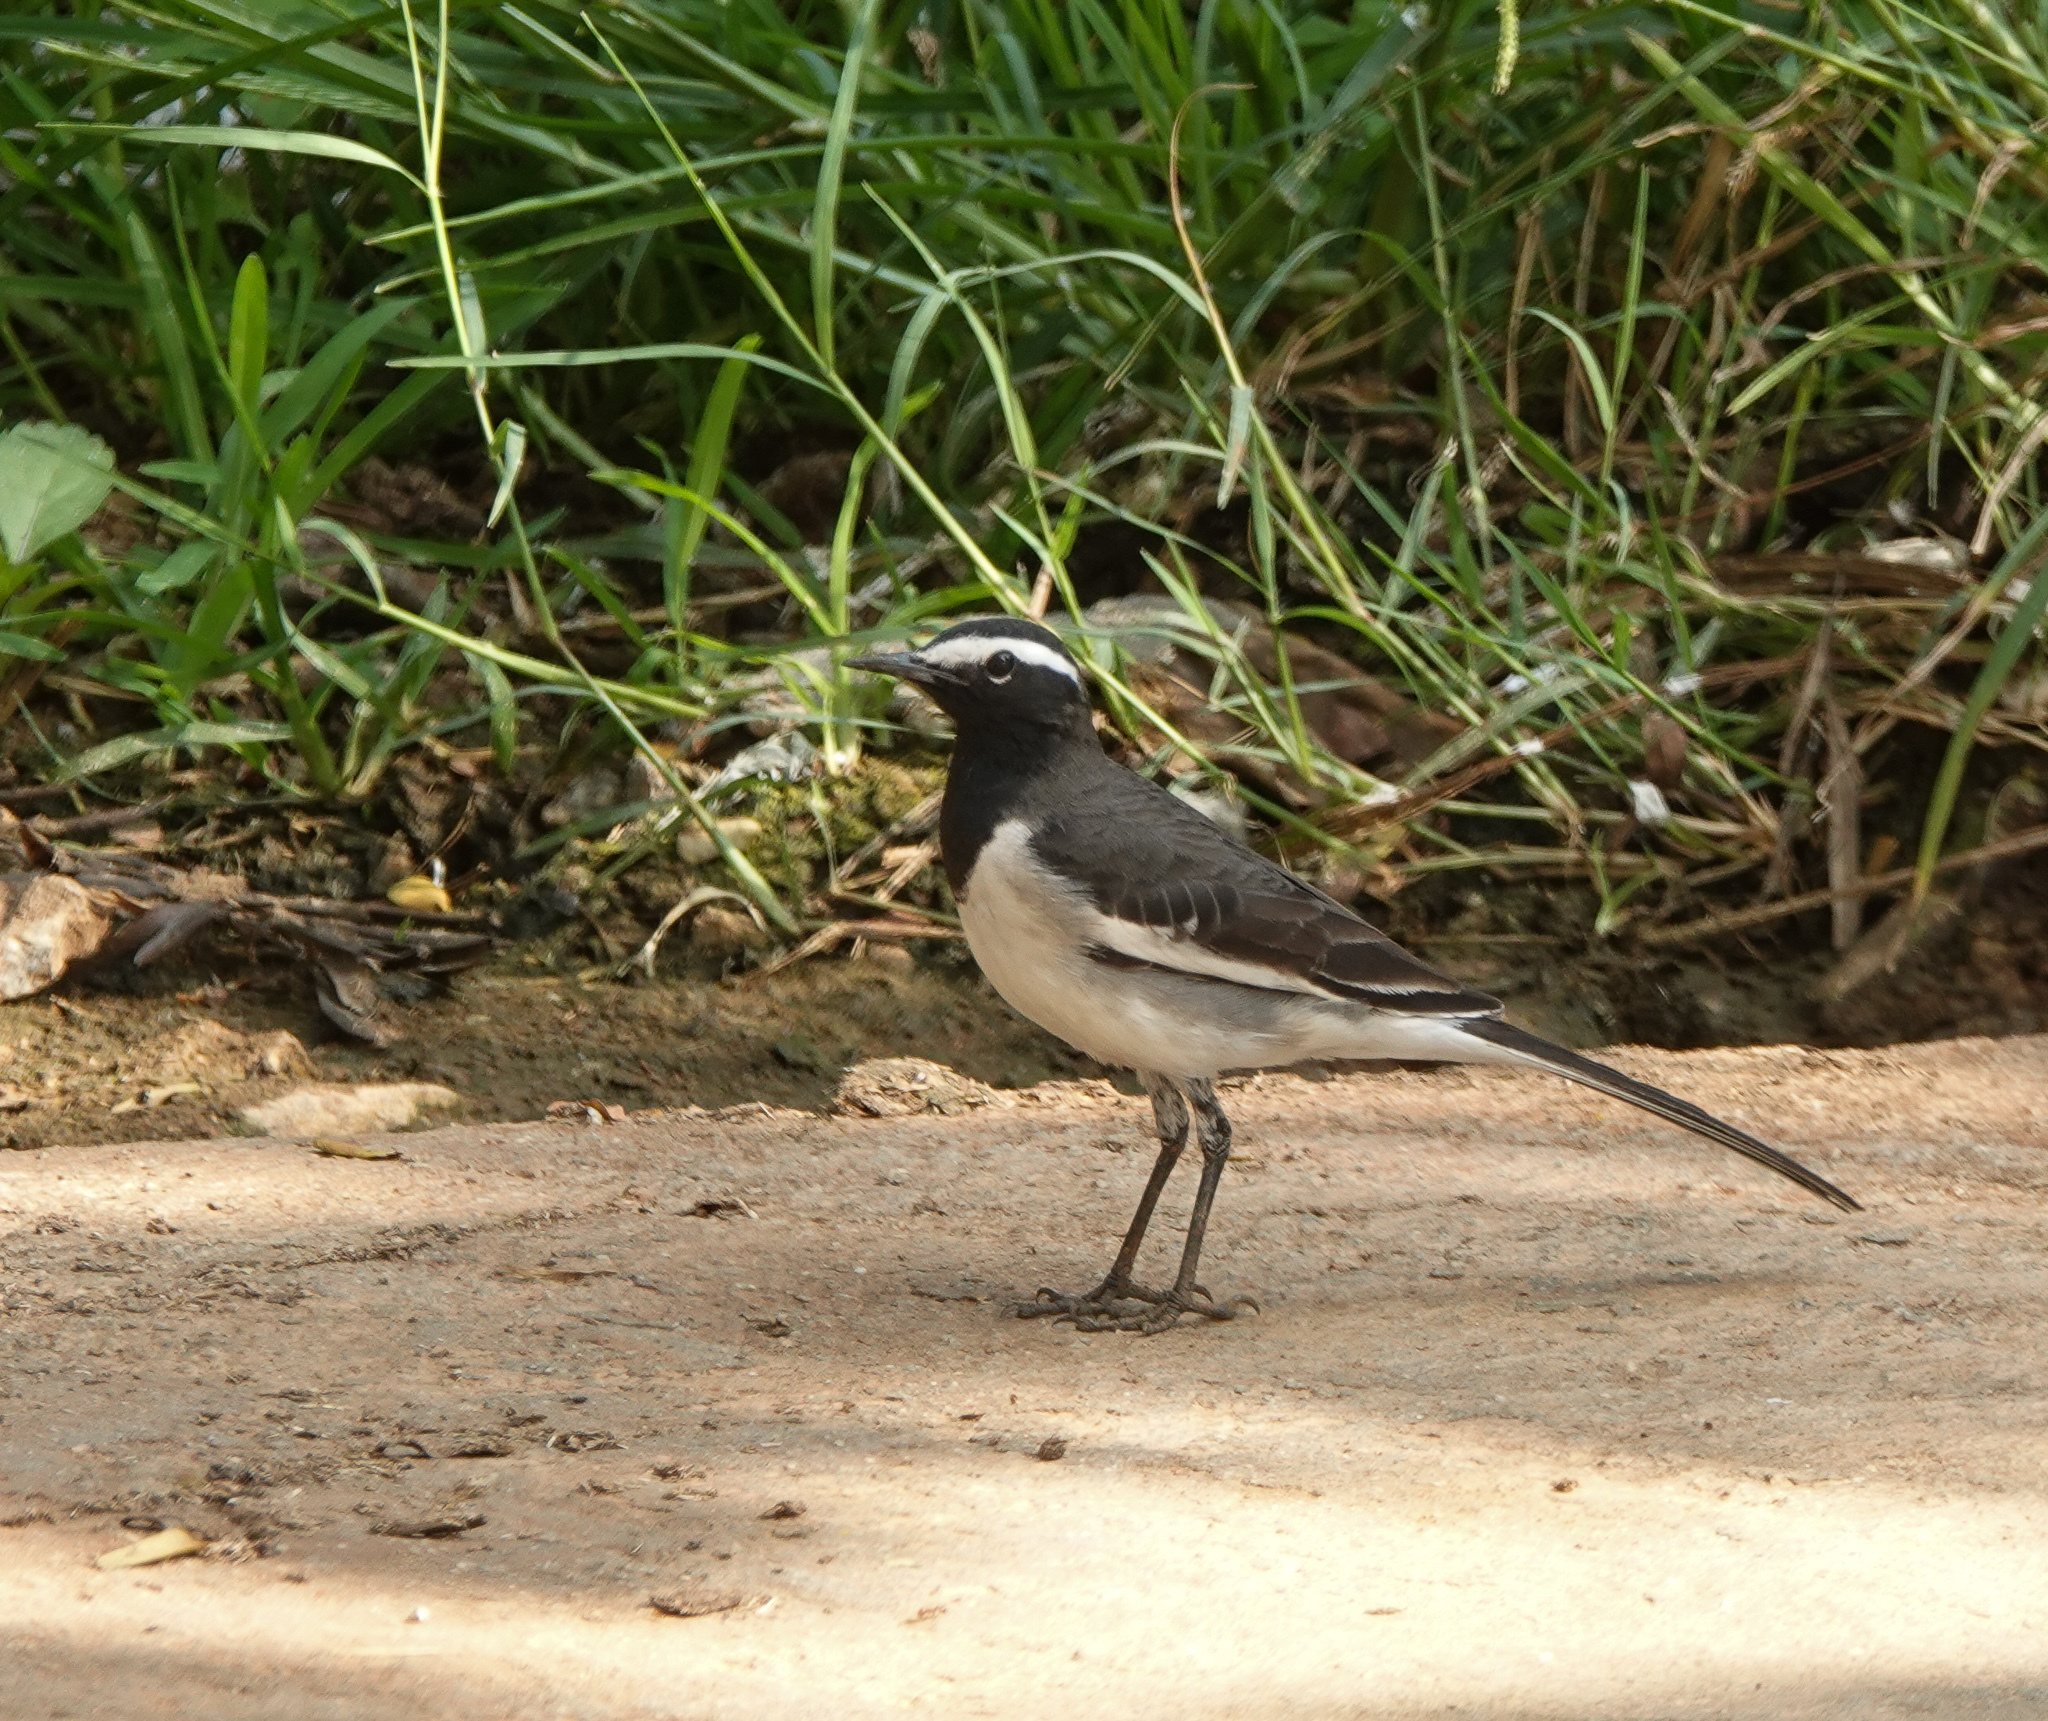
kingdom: Animalia
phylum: Chordata
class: Aves
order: Passeriformes
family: Motacillidae
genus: Motacilla
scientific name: Motacilla maderaspatensis
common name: White-browed wagtail
